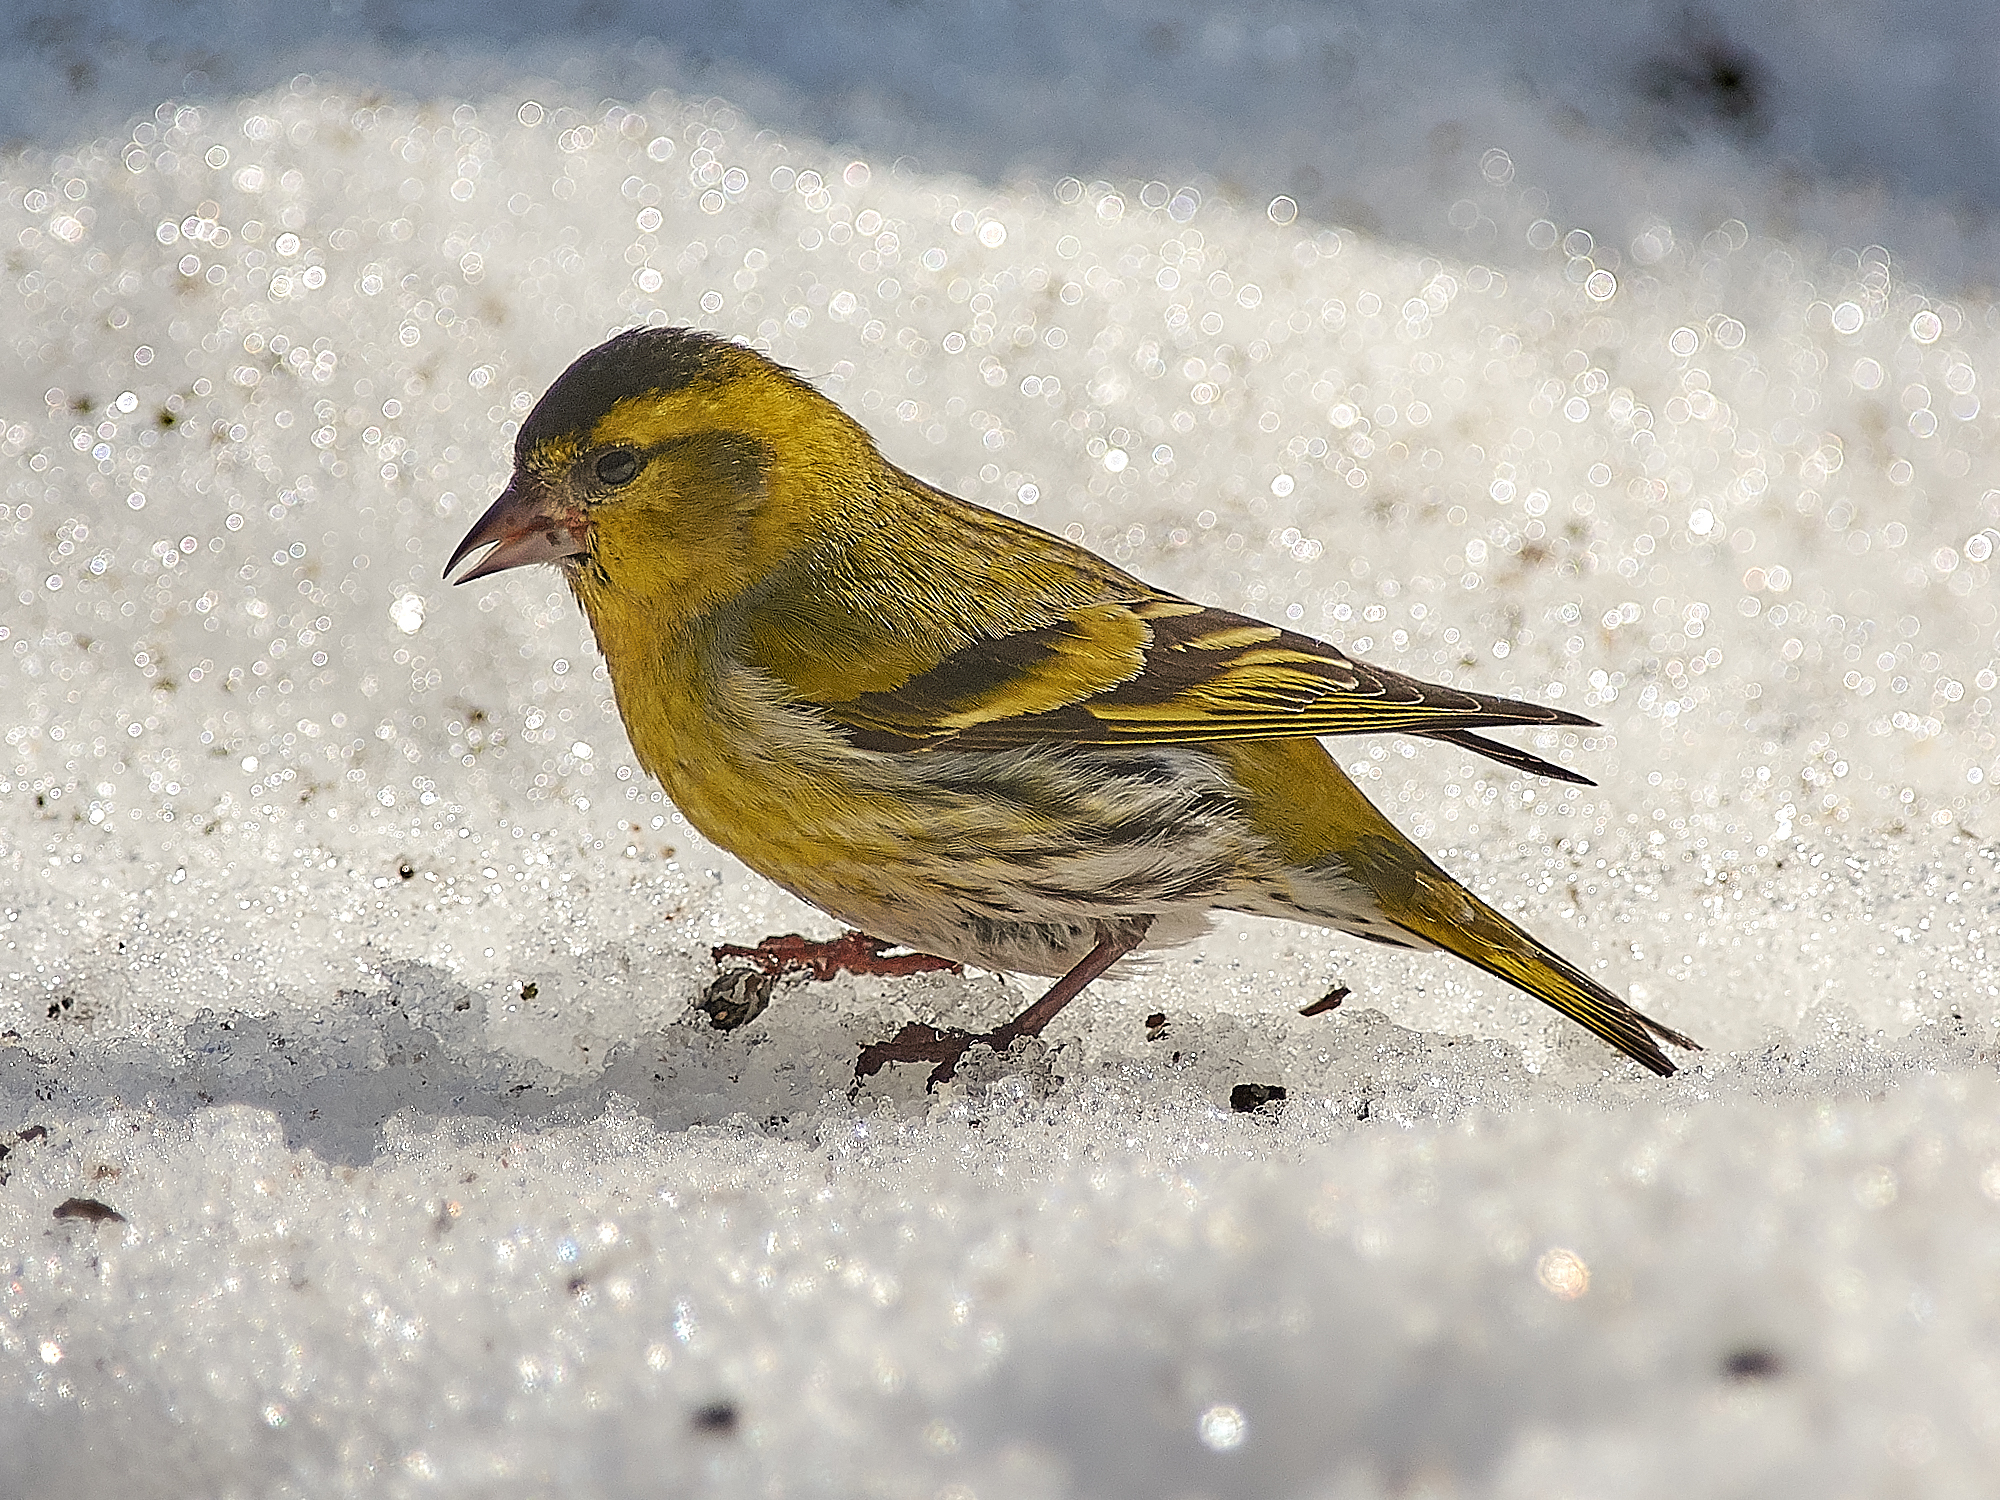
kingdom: Animalia
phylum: Chordata
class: Aves
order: Passeriformes
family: Fringillidae
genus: Spinus
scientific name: Spinus spinus
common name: Eurasian siskin
